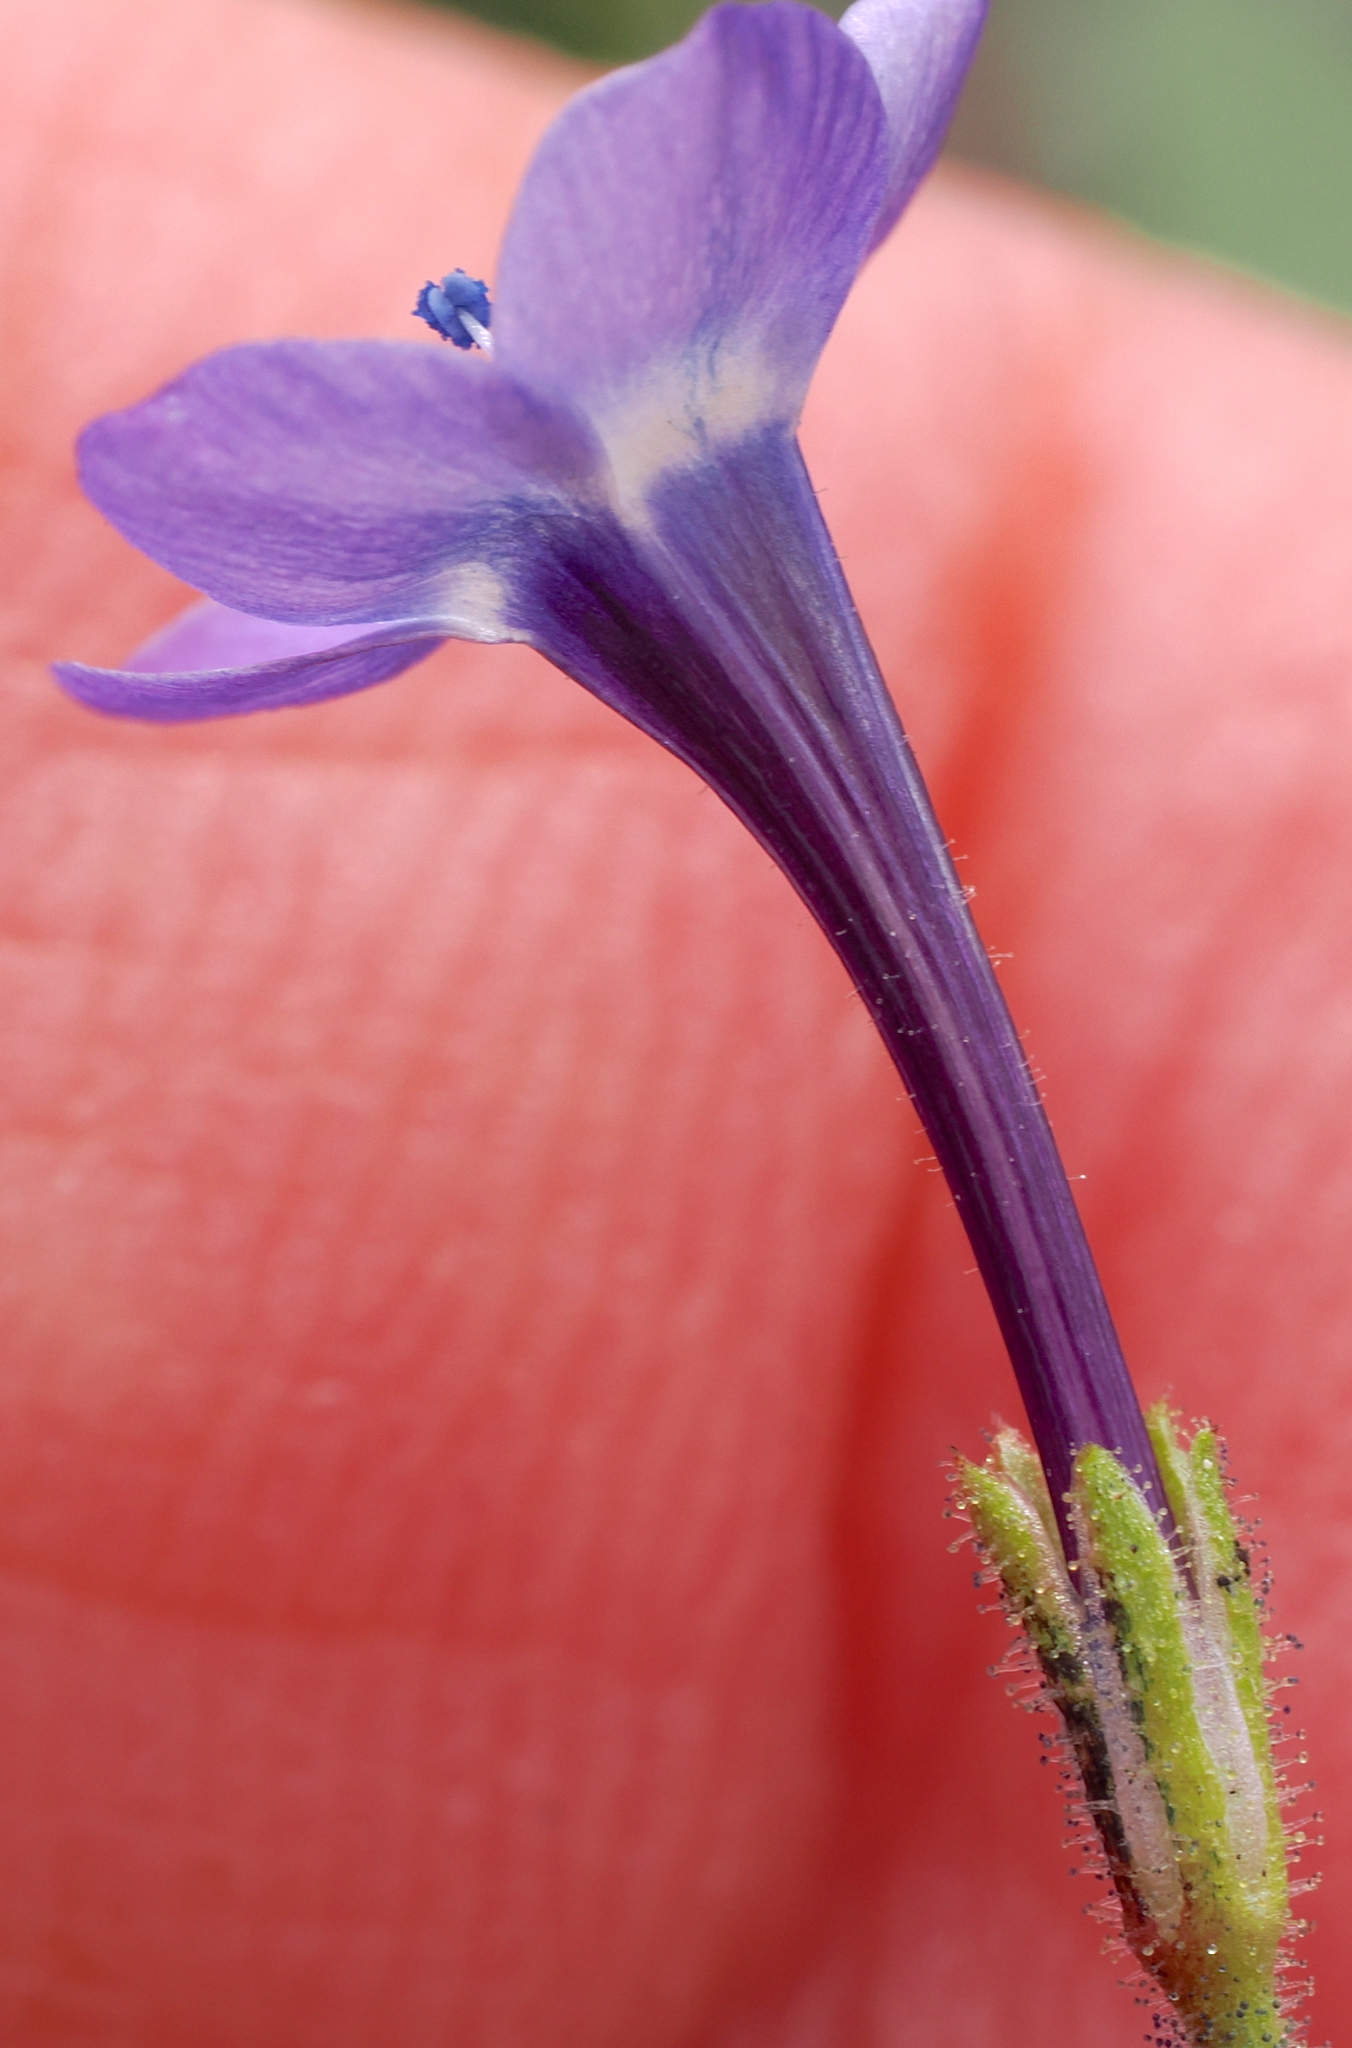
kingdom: Plantae
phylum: Tracheophyta
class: Magnoliopsida
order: Ericales
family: Polemoniaceae
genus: Gilia
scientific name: Gilia tenuiflora
